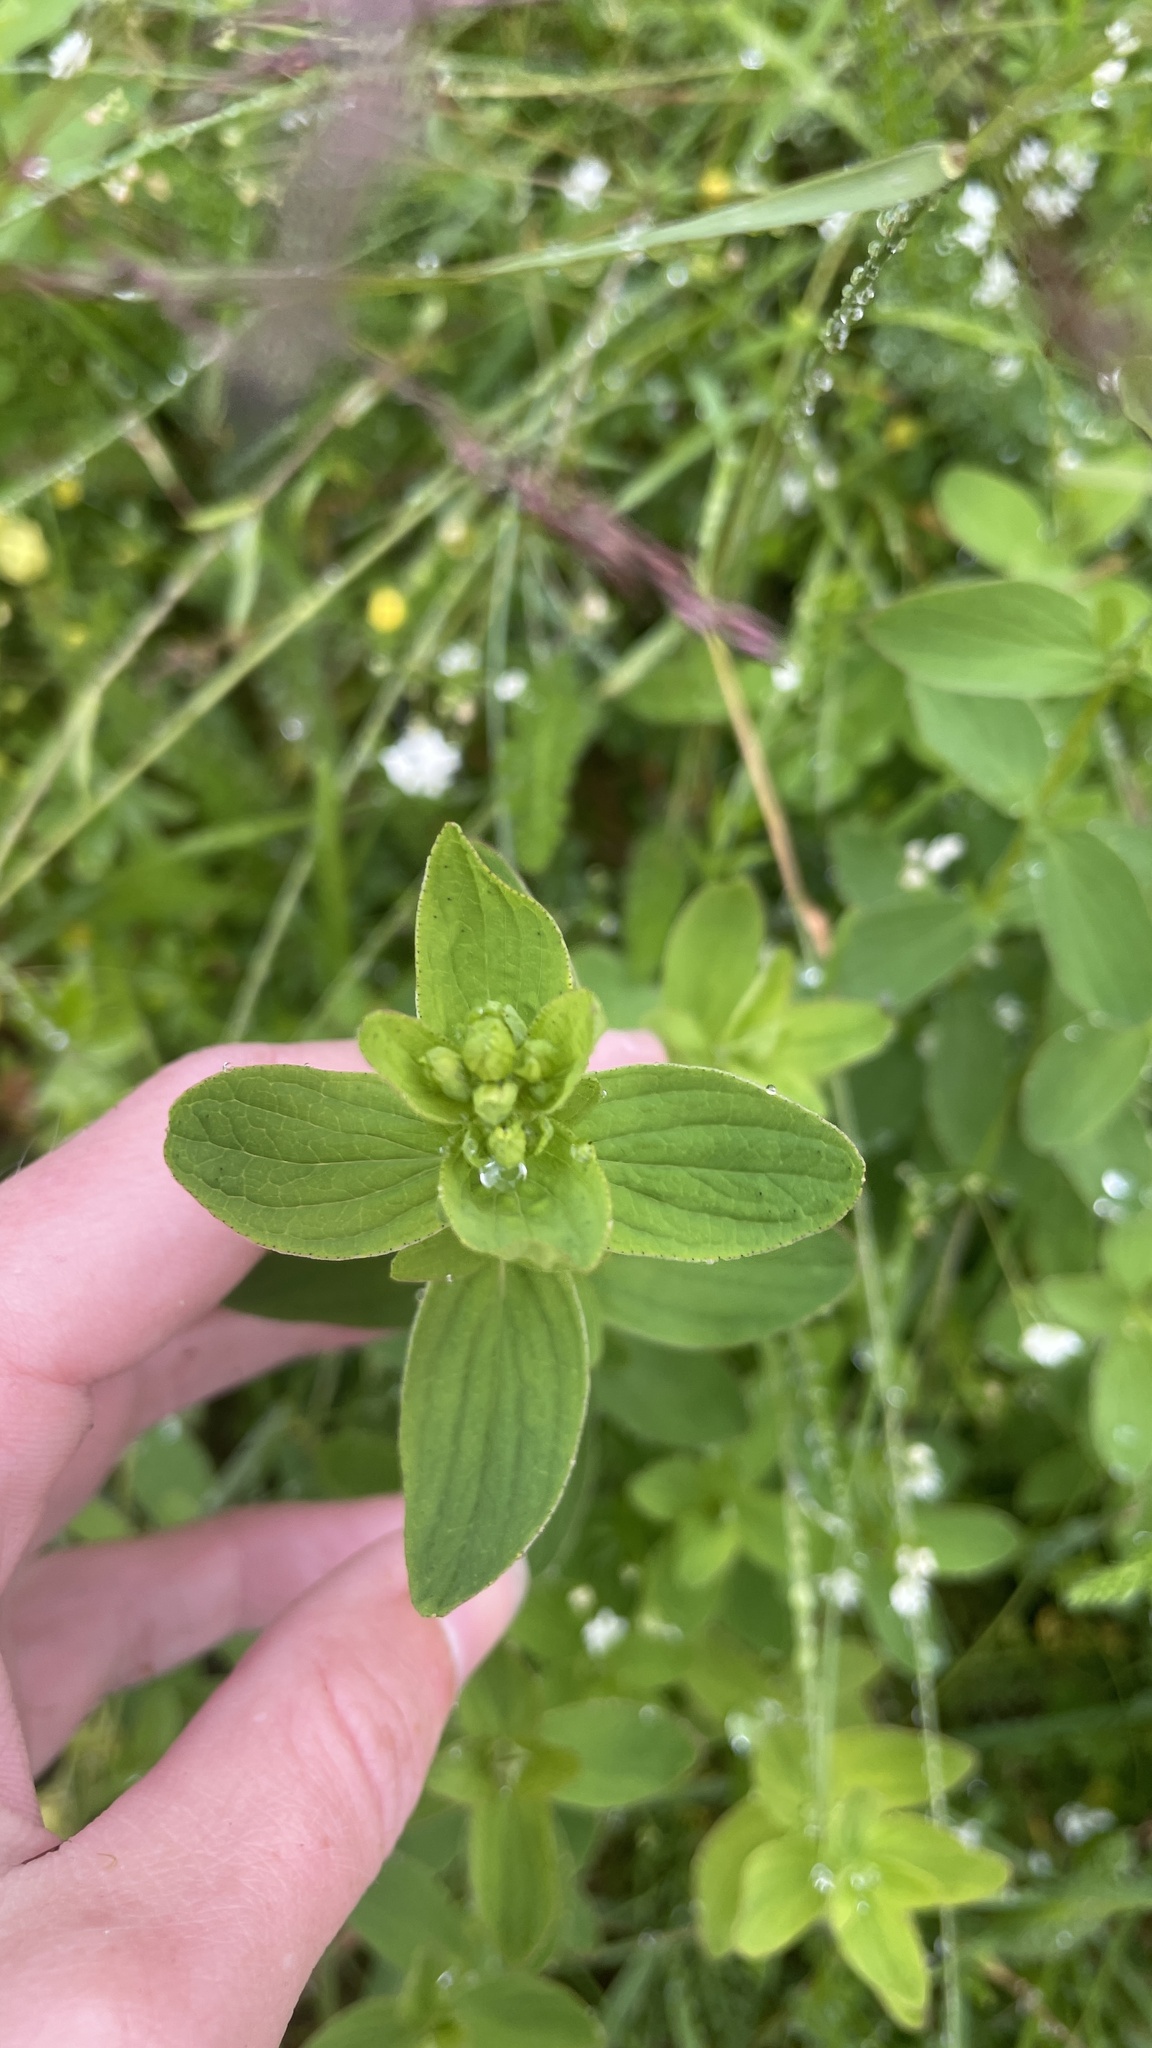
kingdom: Plantae
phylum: Tracheophyta
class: Magnoliopsida
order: Malpighiales
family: Hypericaceae
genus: Hypericum
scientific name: Hypericum maculatum
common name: Imperforate st. john's-wort
